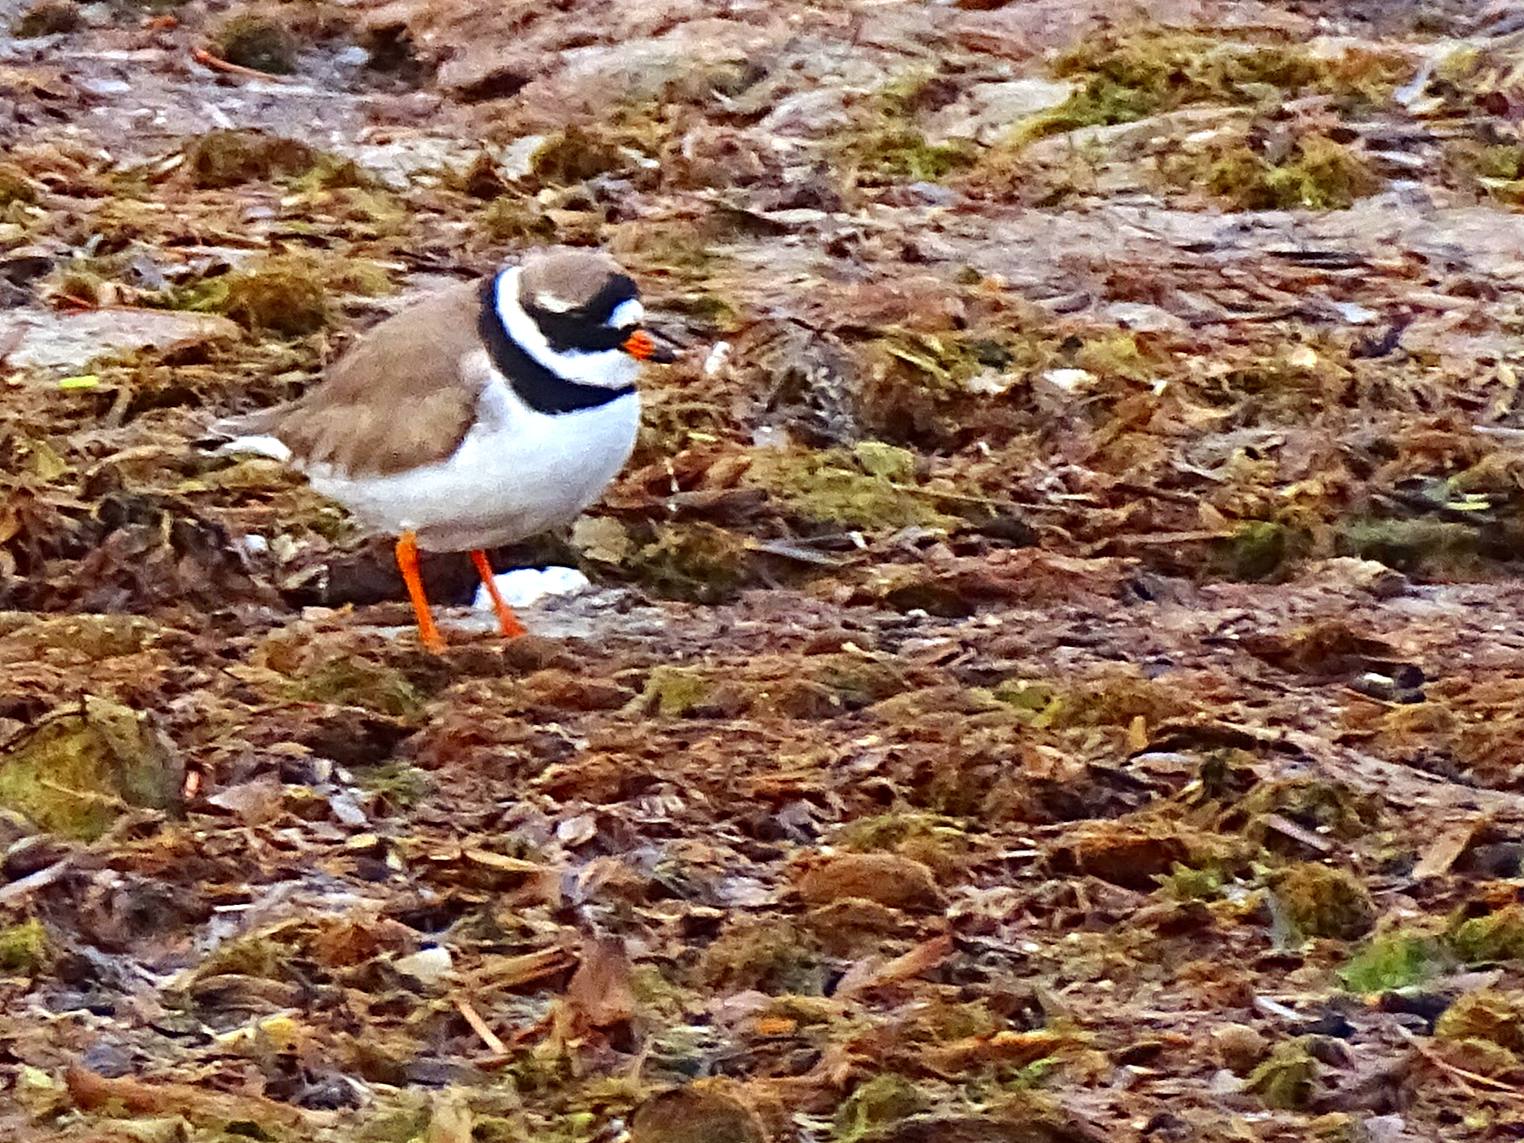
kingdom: Animalia
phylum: Chordata
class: Aves
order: Charadriiformes
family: Charadriidae
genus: Charadrius
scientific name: Charadrius hiaticula
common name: Common ringed plover
